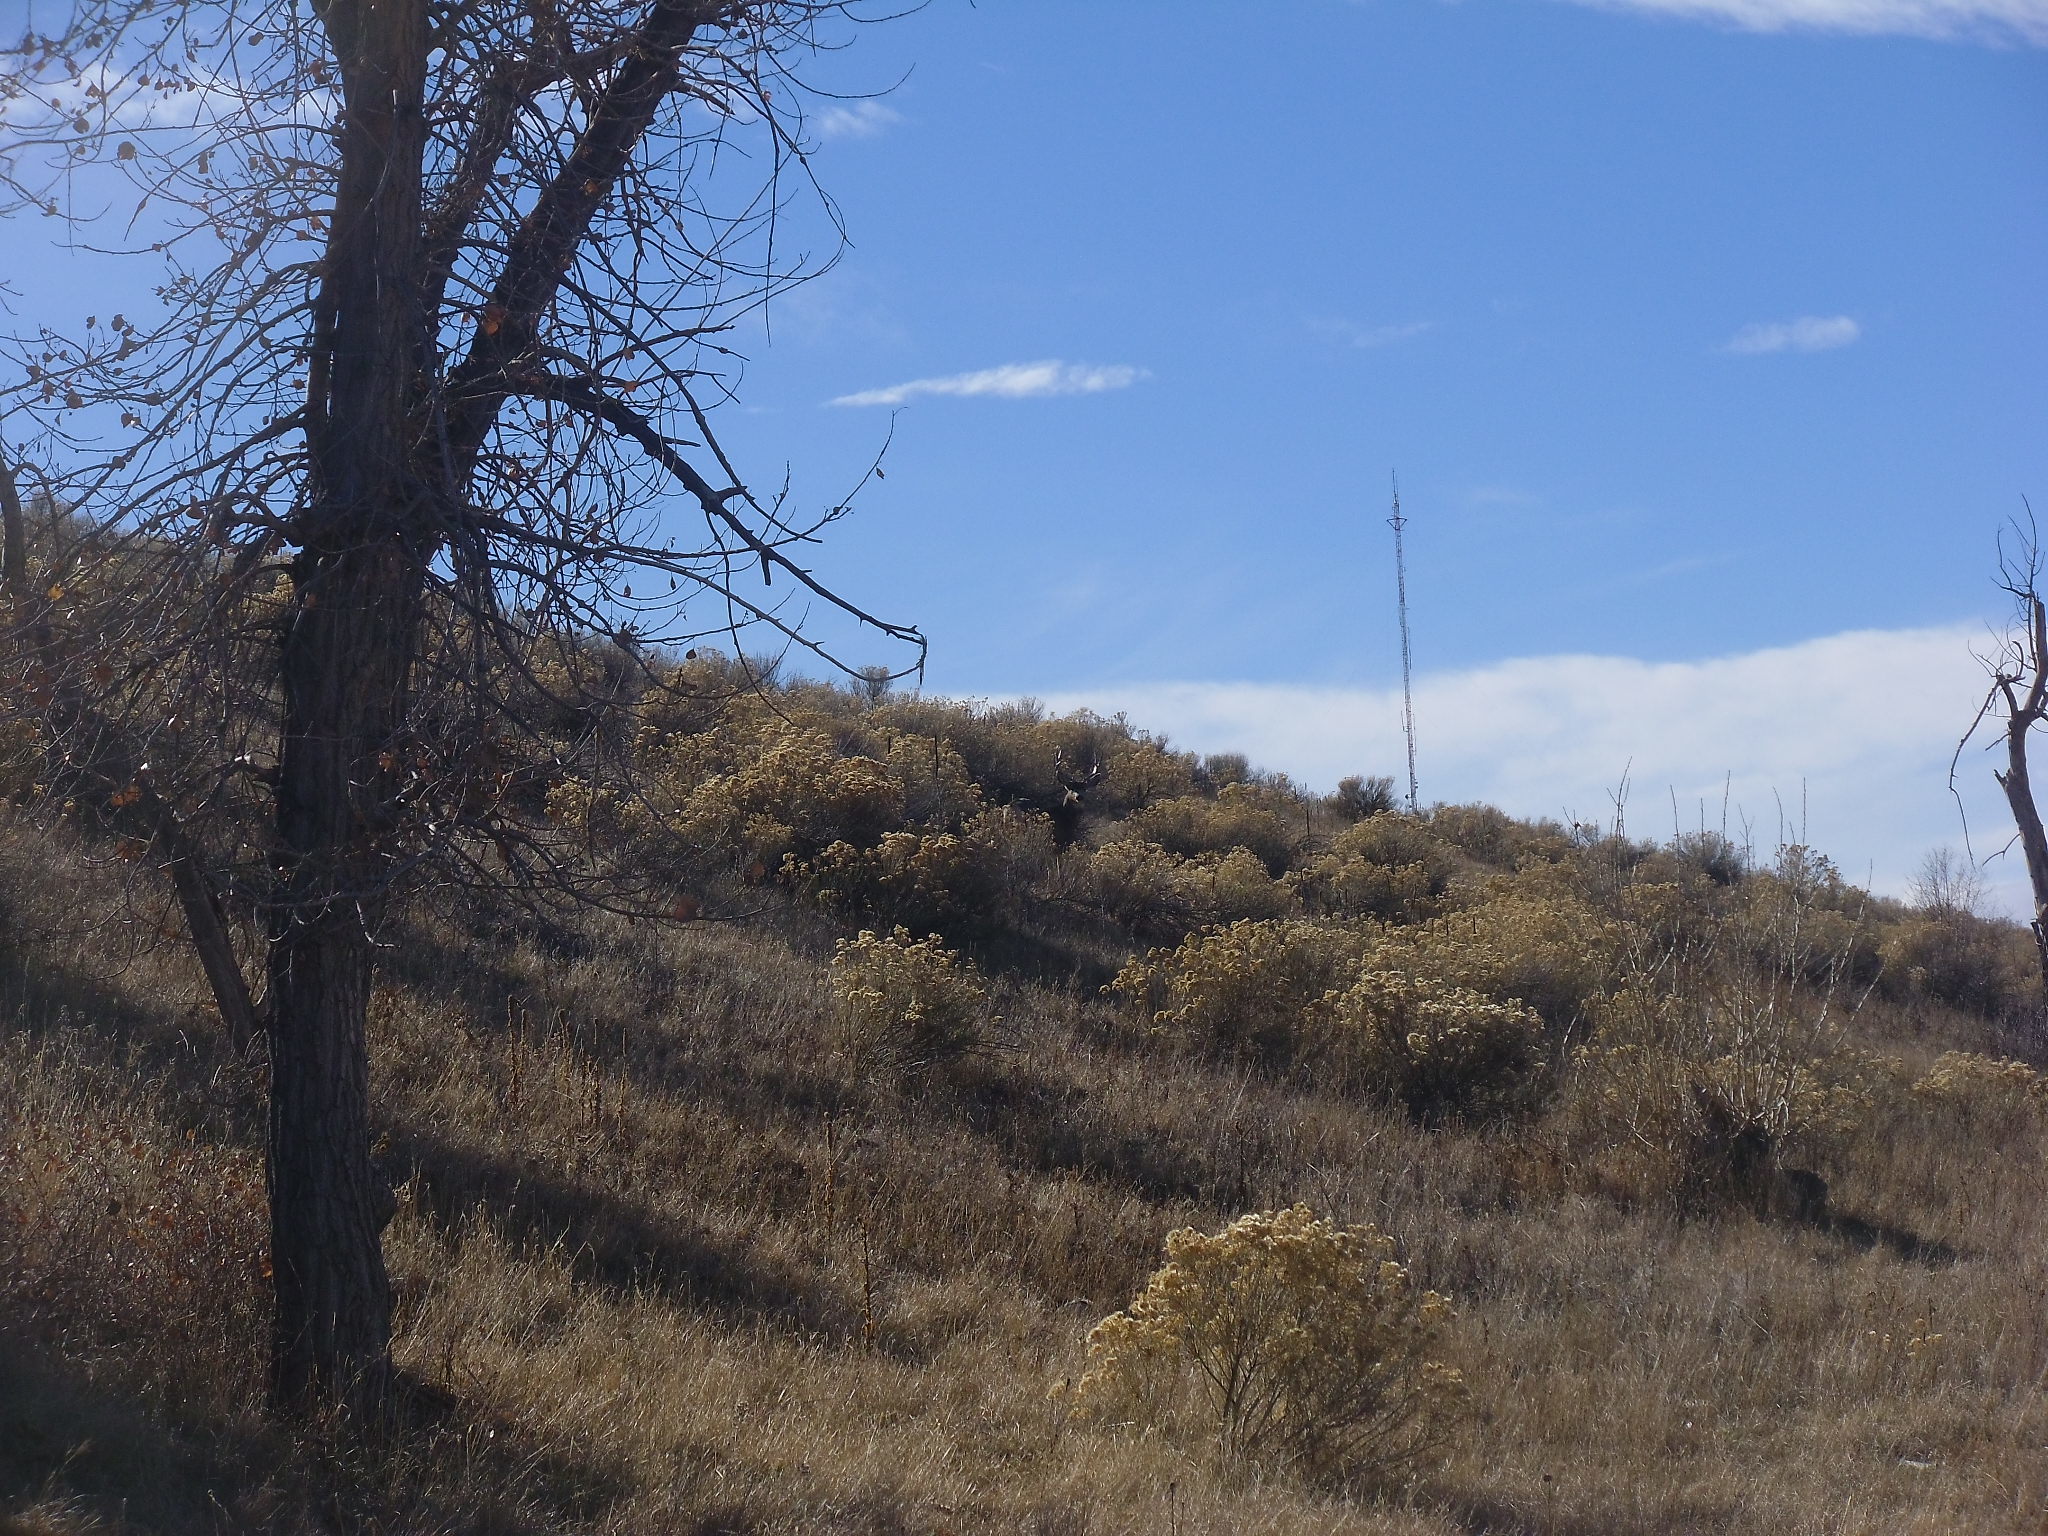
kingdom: Animalia
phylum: Chordata
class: Mammalia
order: Artiodactyla
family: Cervidae
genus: Odocoileus
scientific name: Odocoileus hemionus
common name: Mule deer
